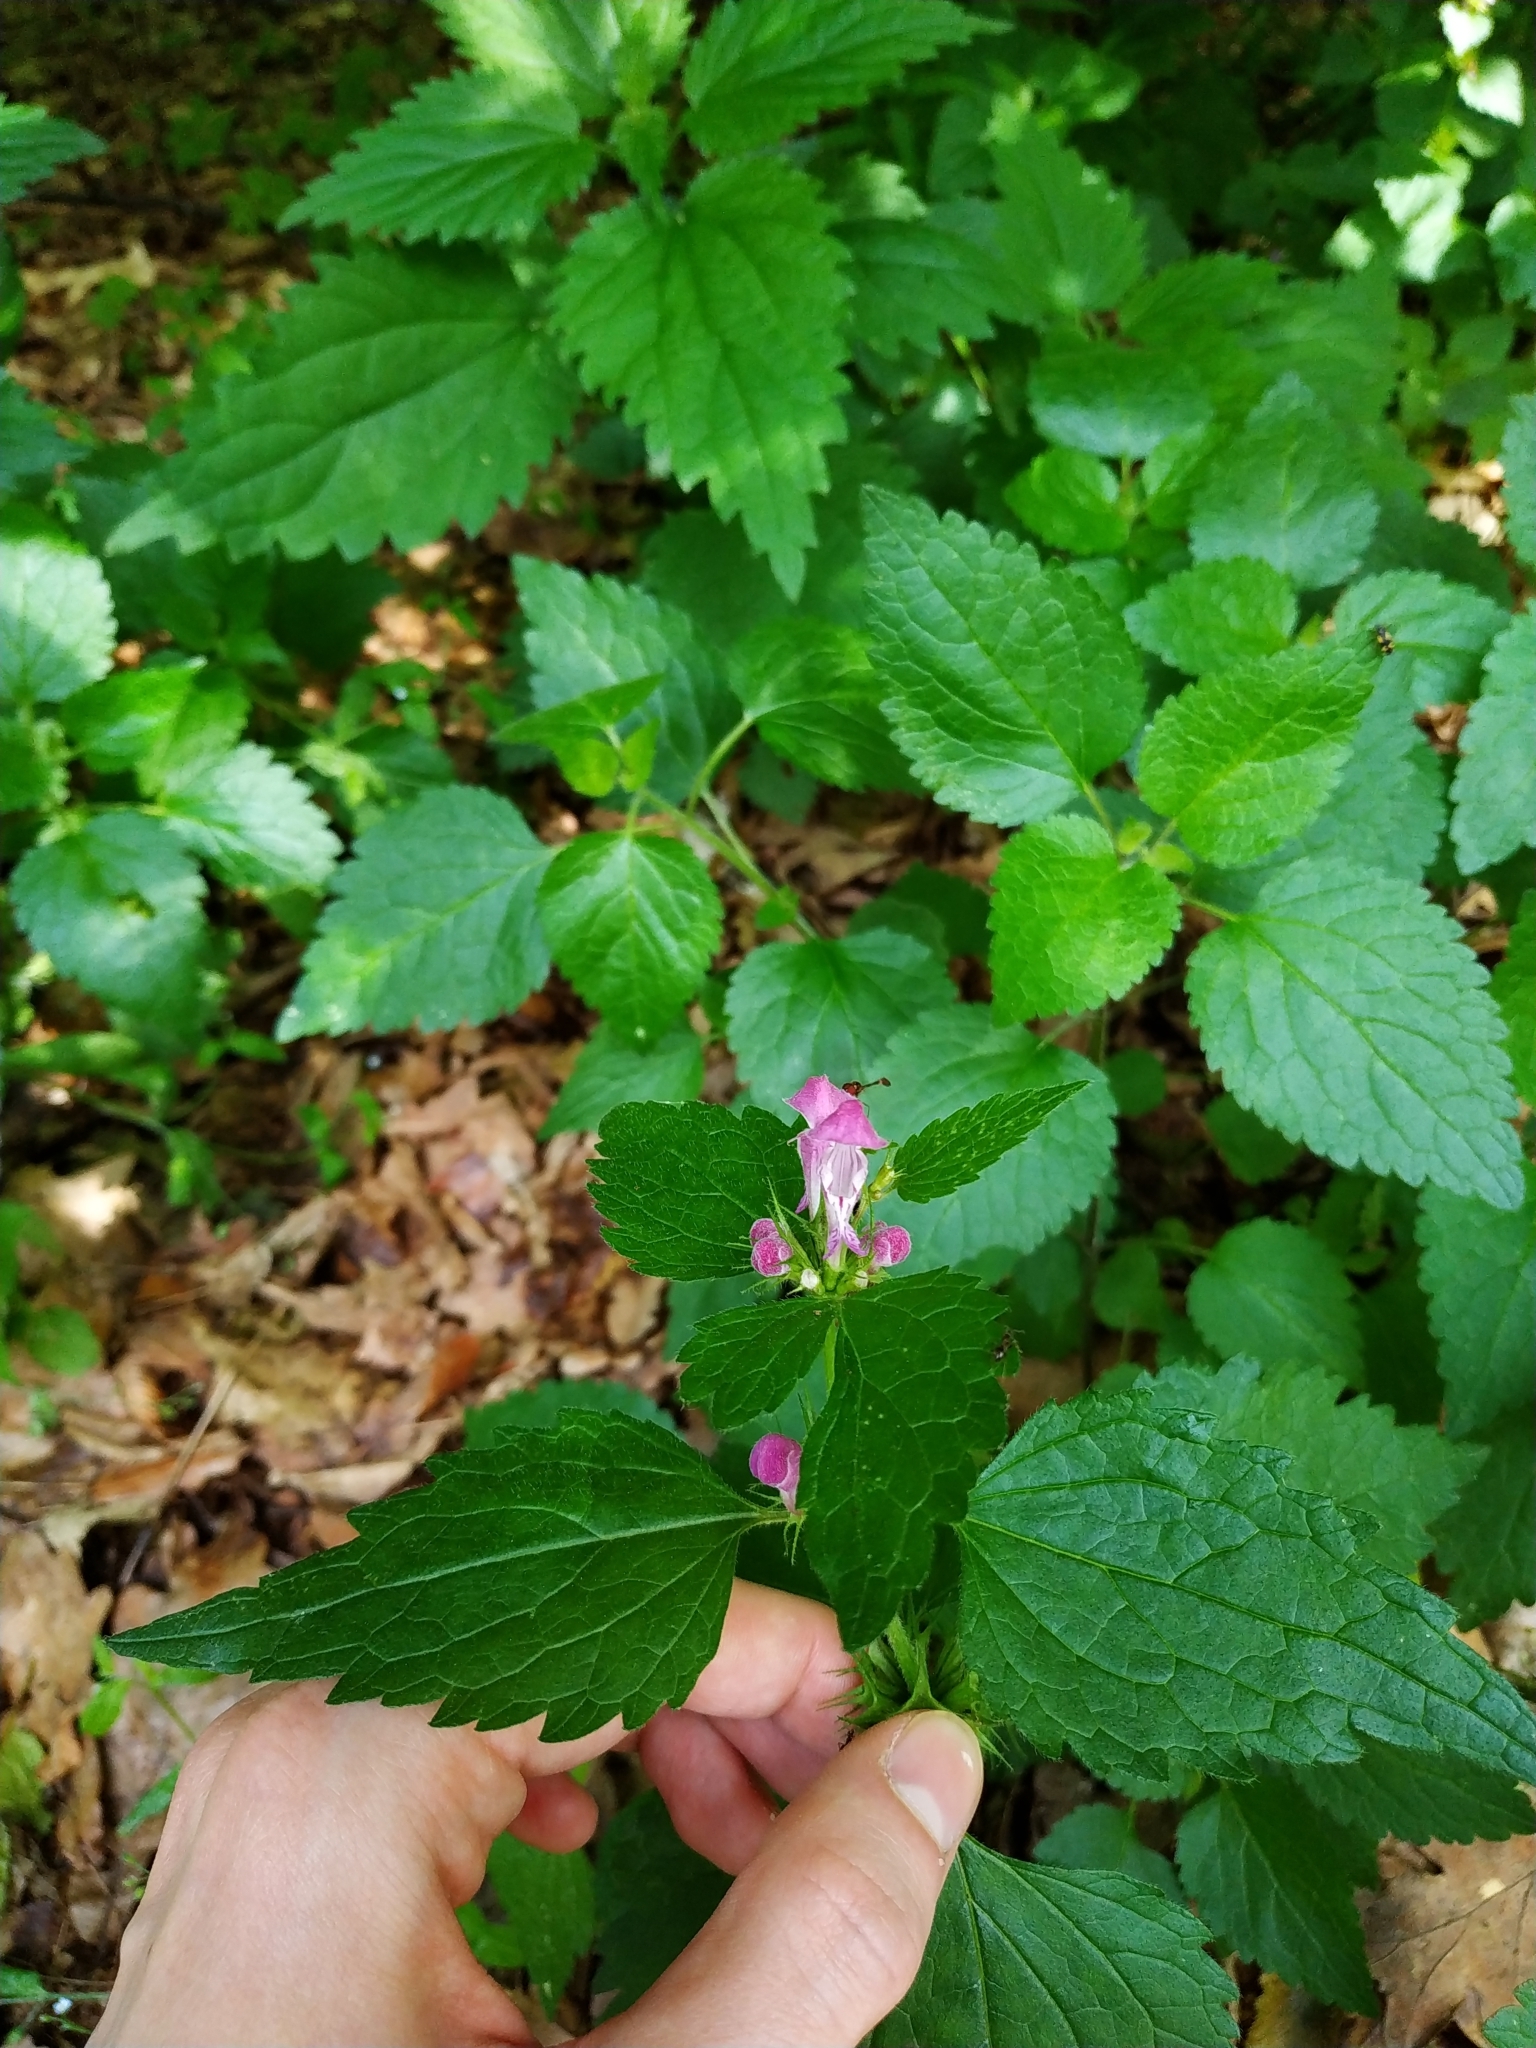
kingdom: Plantae
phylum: Tracheophyta
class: Magnoliopsida
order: Lamiales
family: Lamiaceae
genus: Lamium
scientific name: Lamium maculatum
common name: Spotted dead-nettle
